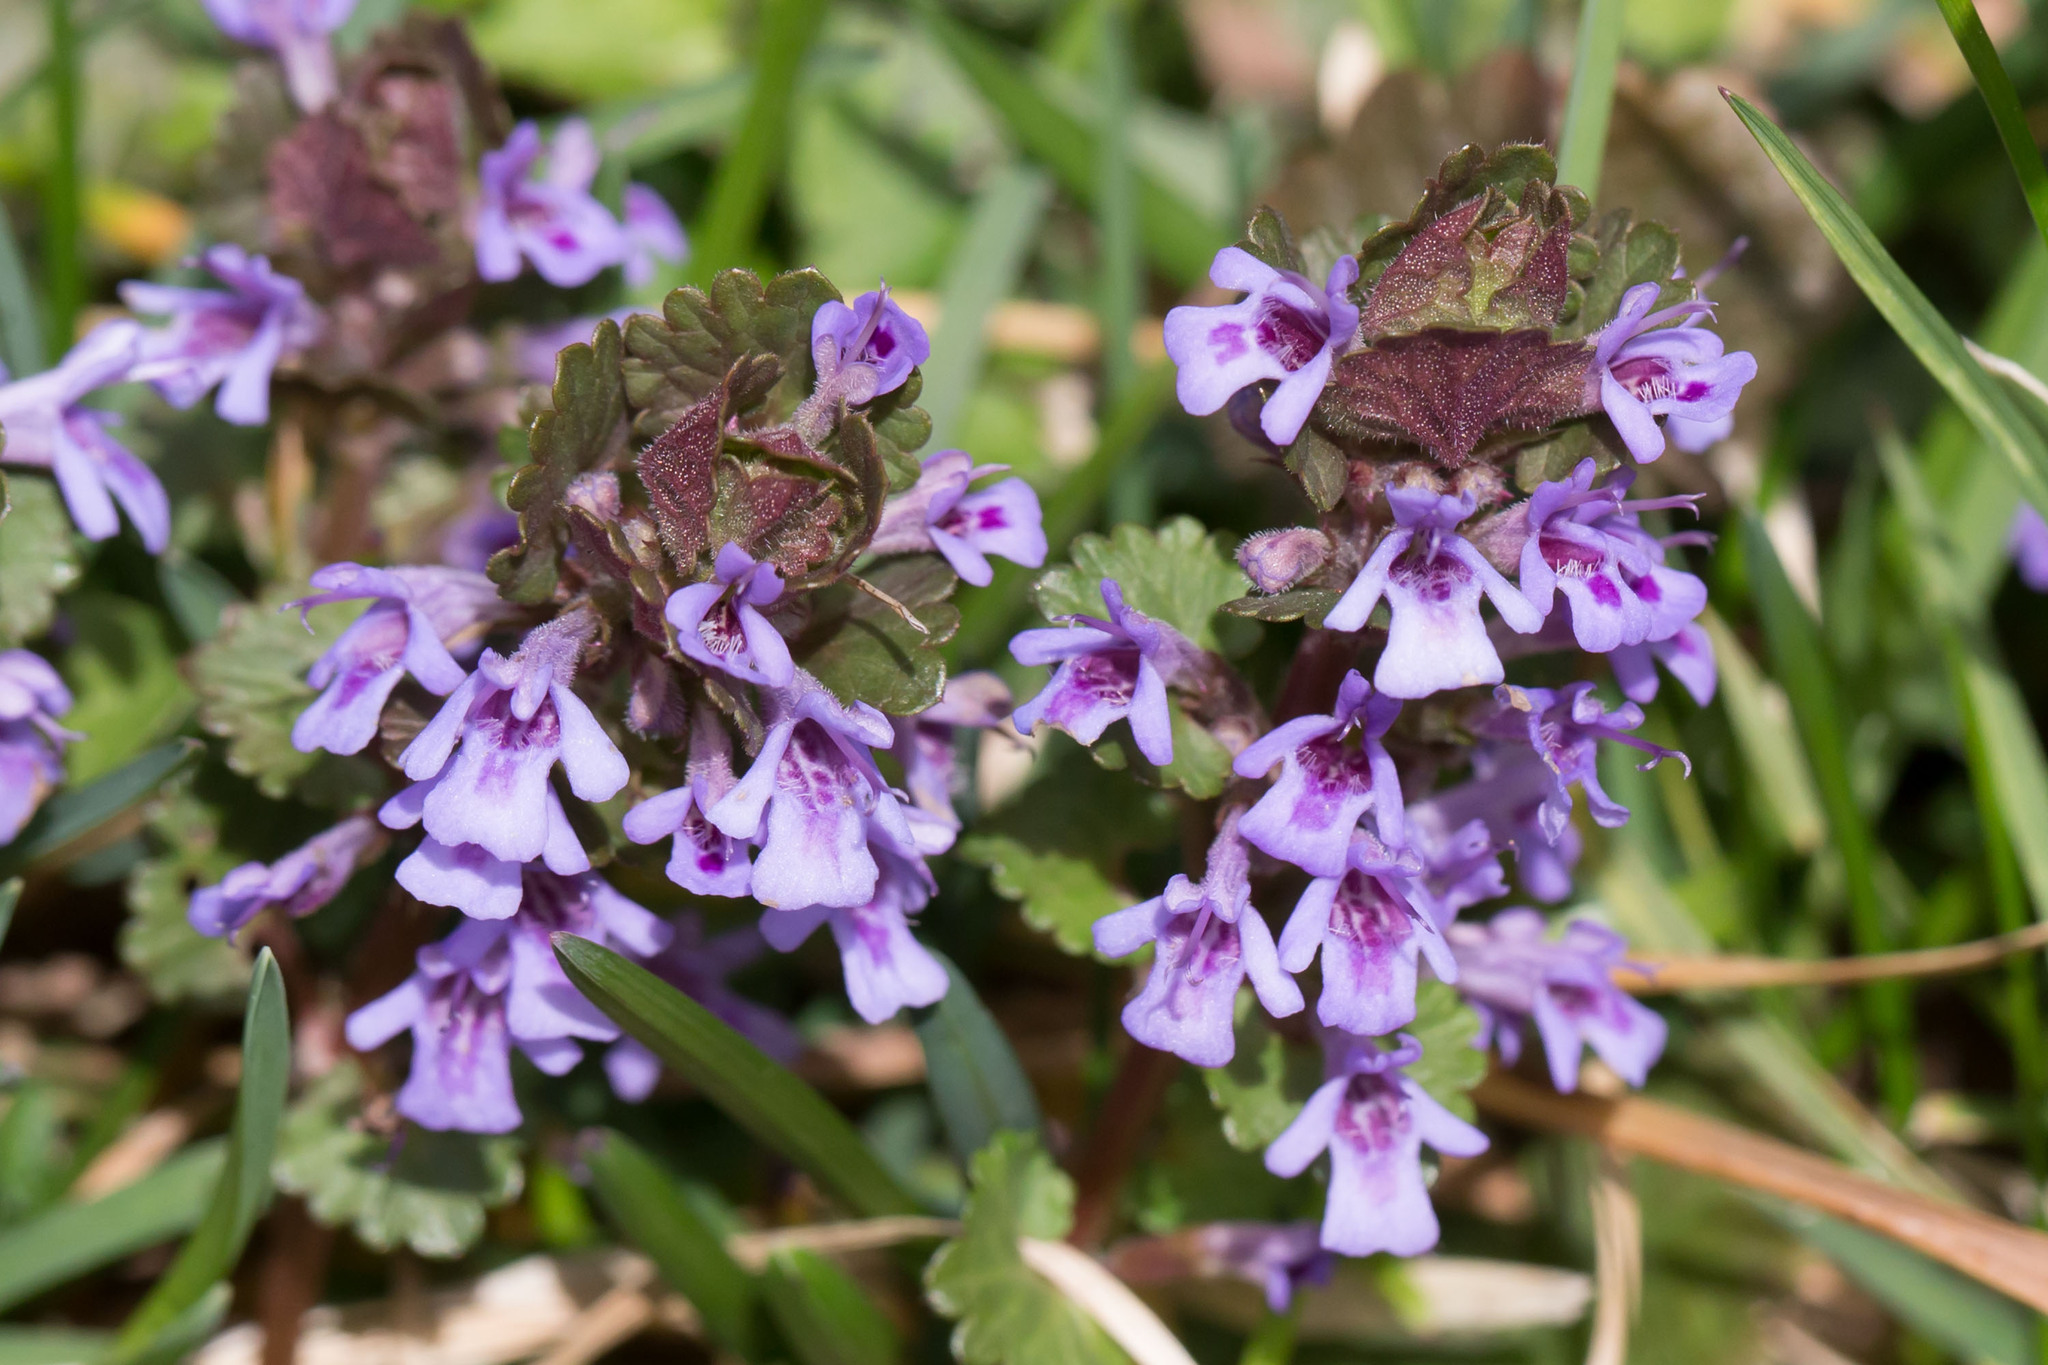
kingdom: Plantae
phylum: Tracheophyta
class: Magnoliopsida
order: Lamiales
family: Lamiaceae
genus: Glechoma
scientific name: Glechoma hederacea
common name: Ground ivy
